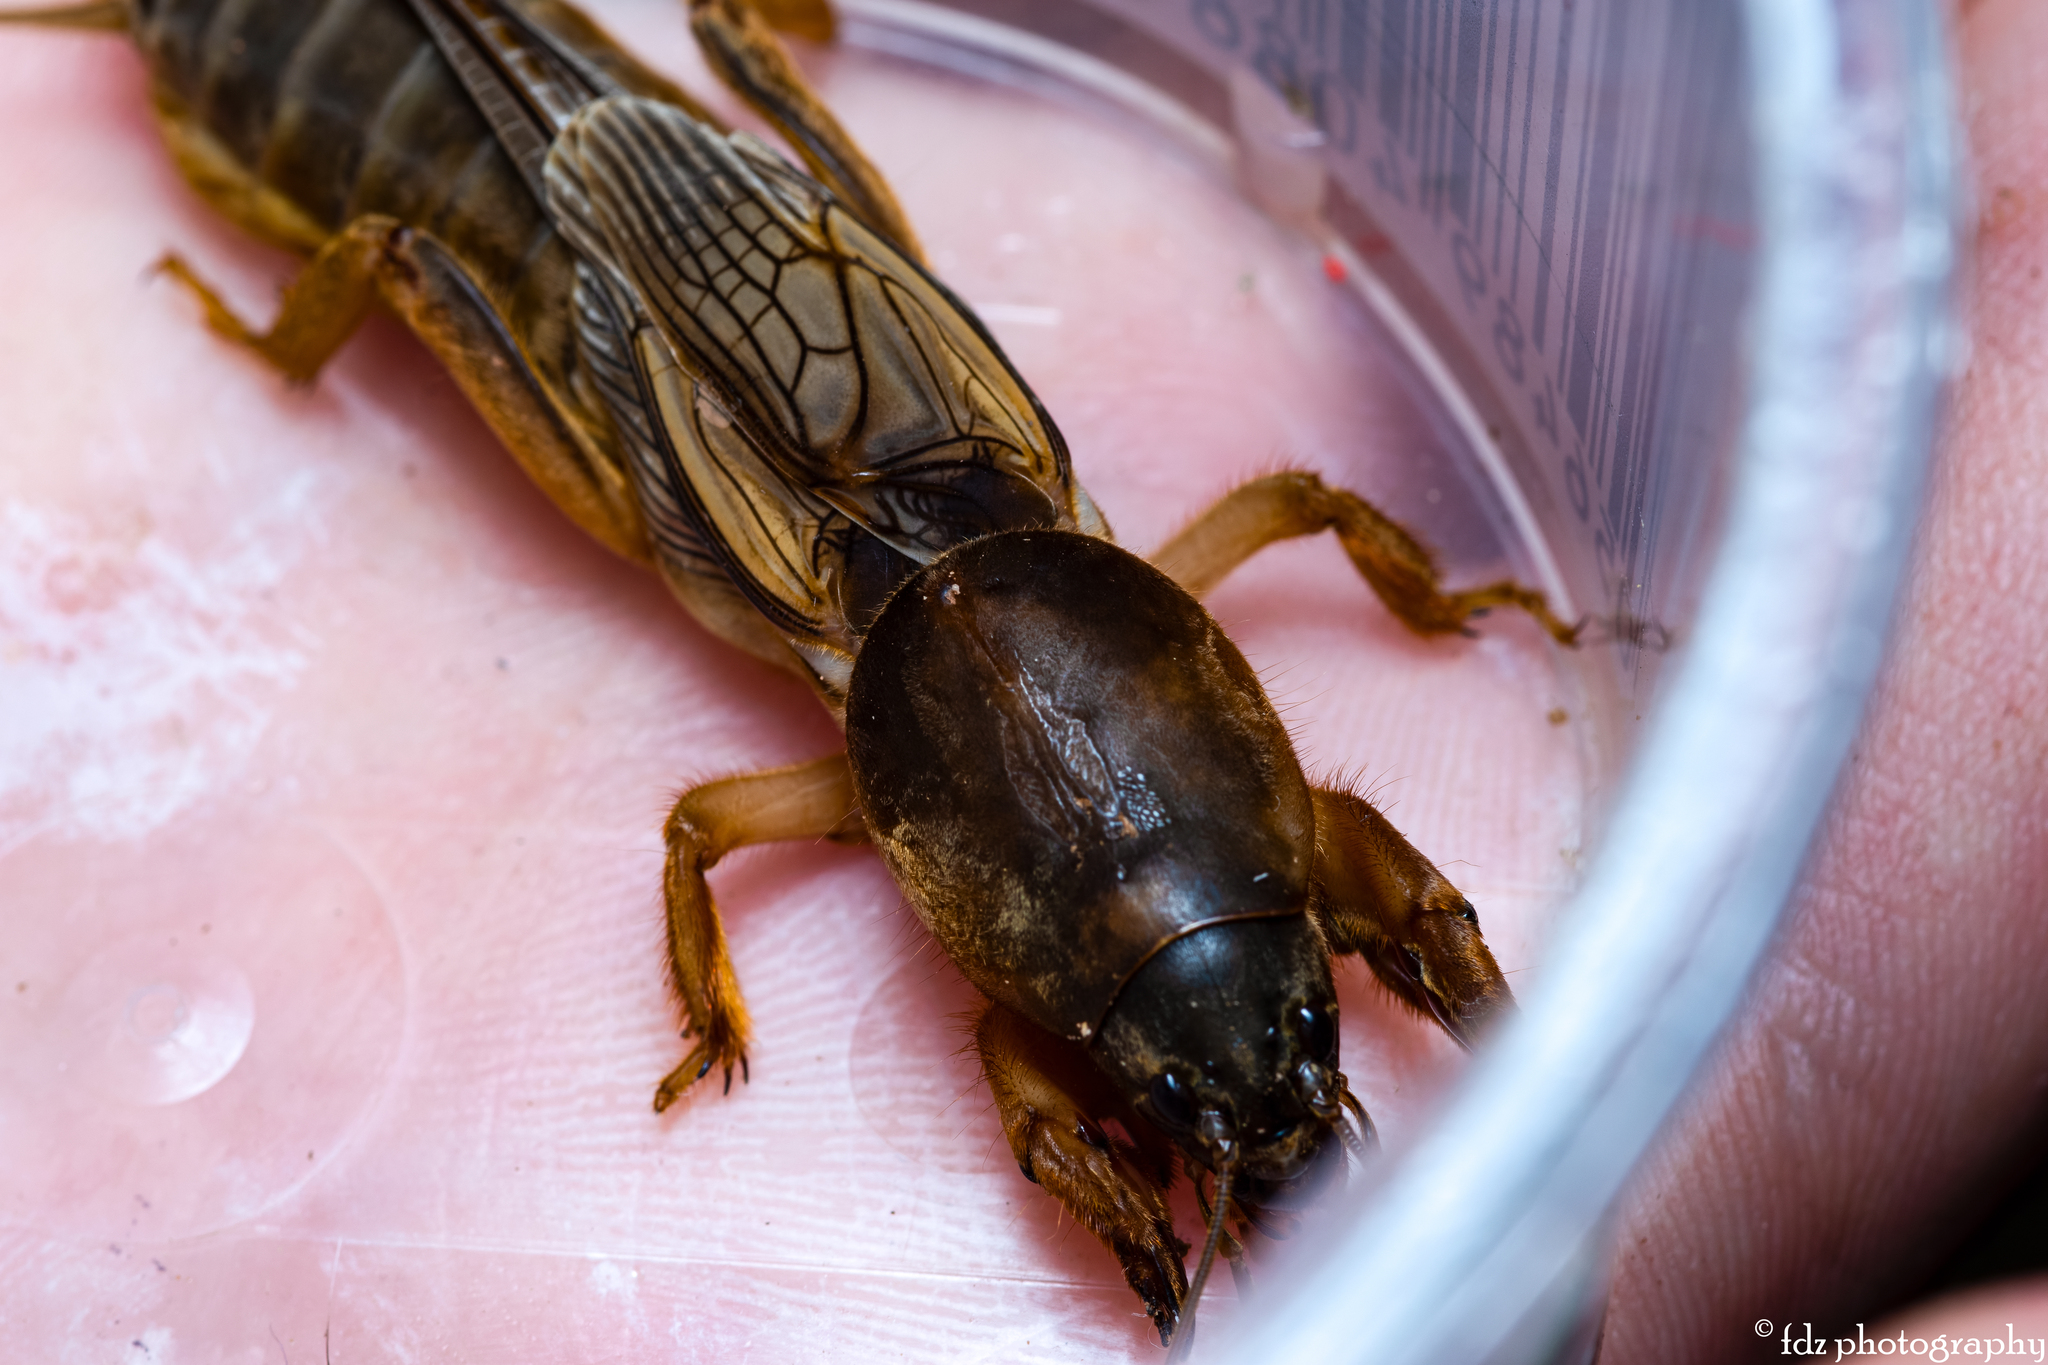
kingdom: Animalia
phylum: Arthropoda
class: Insecta
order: Orthoptera
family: Gryllotalpidae
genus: Gryllotalpa
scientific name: Gryllotalpa vineae
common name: Vineyard mole-cricket
